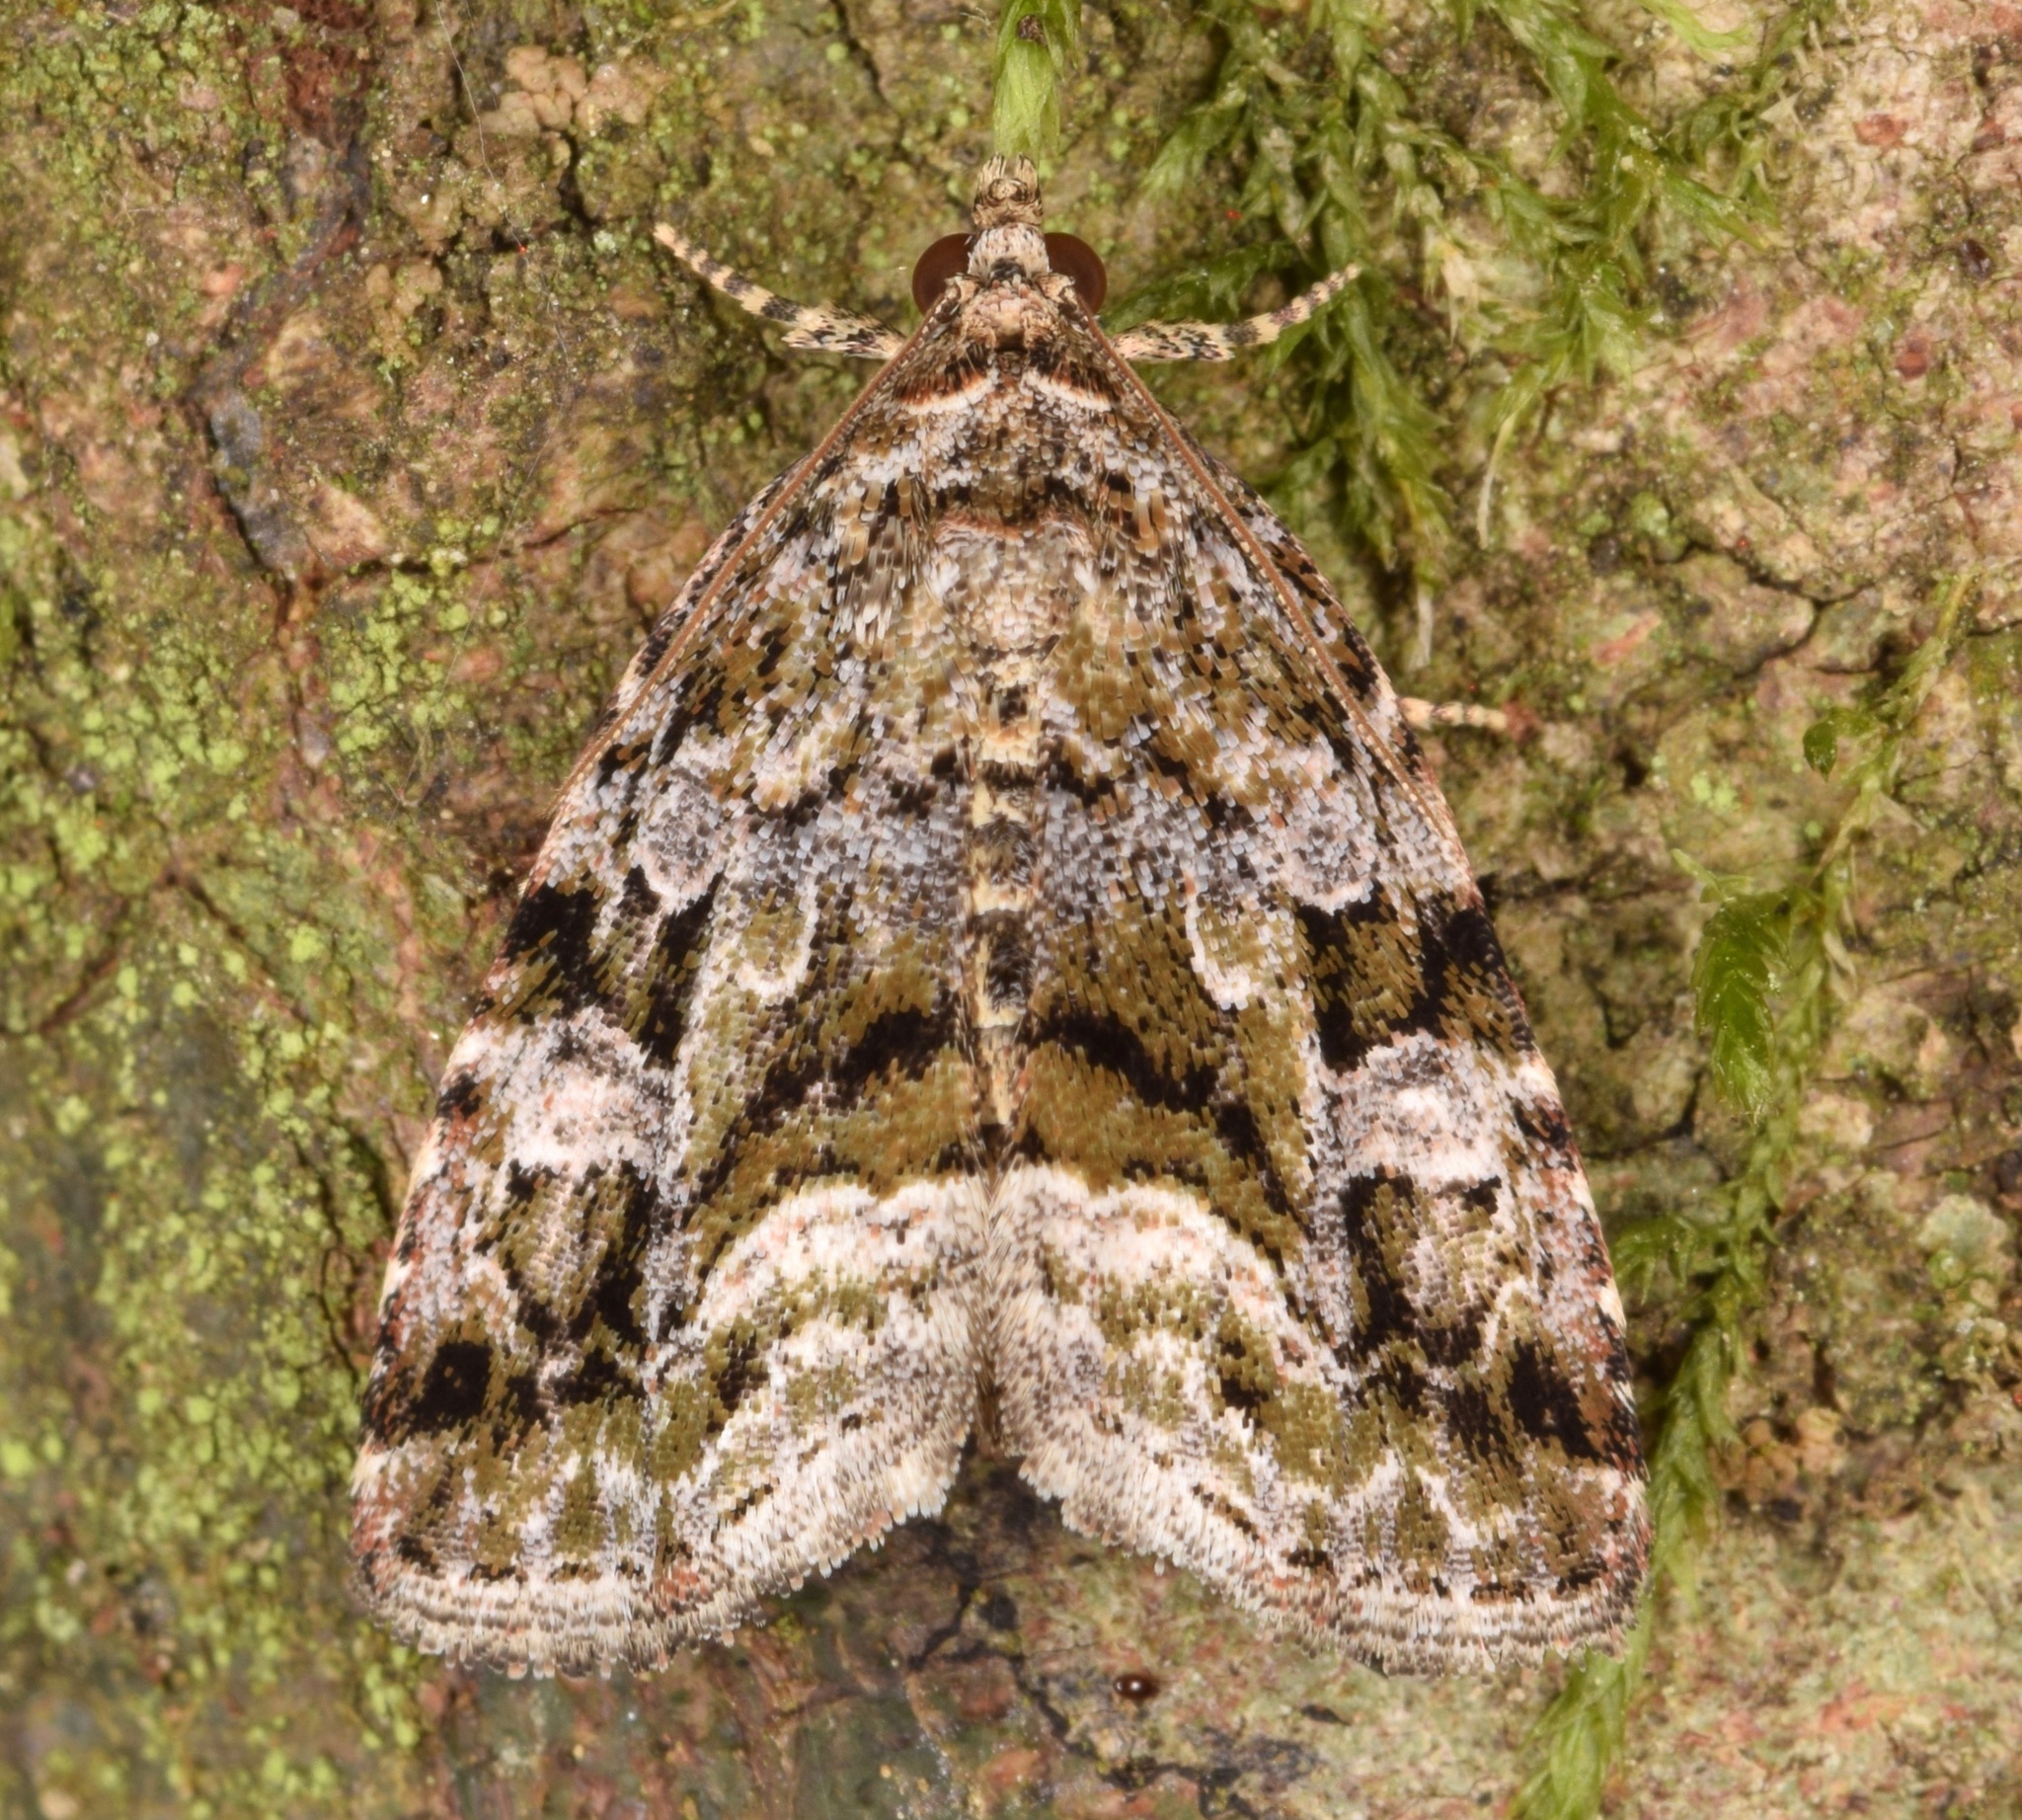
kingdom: Animalia
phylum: Arthropoda
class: Insecta
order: Lepidoptera
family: Noctuidae
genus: Protodeltote
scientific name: Protodeltote muscosula
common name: Large mossy glyph
